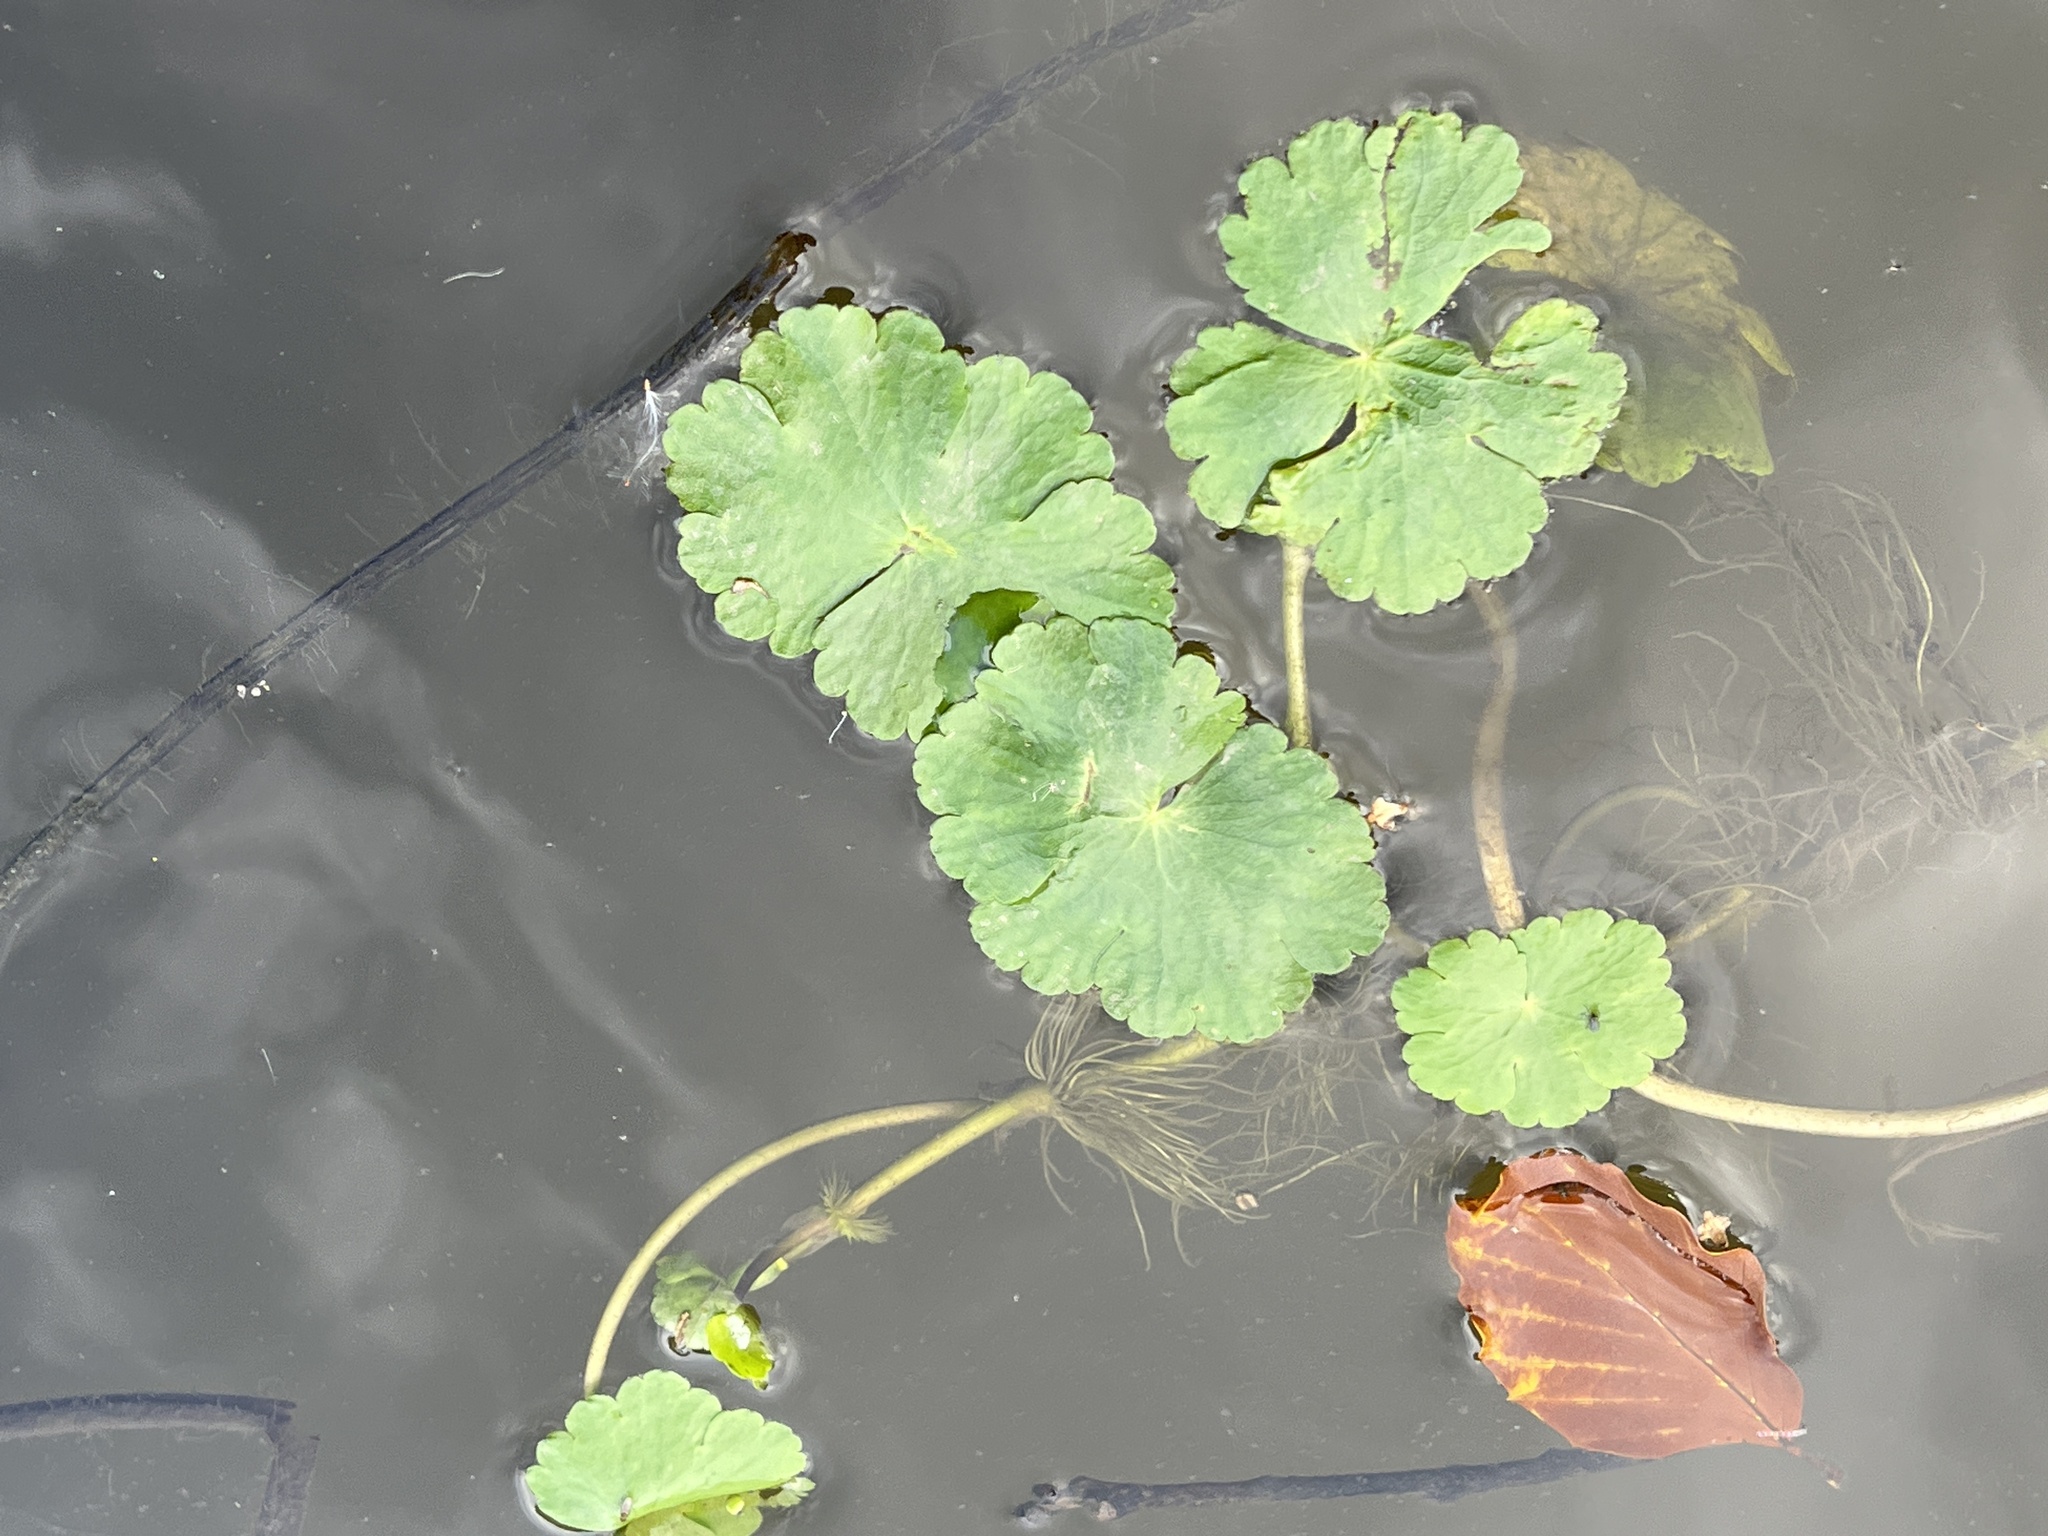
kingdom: Plantae
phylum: Tracheophyta
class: Magnoliopsida
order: Apiales
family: Araliaceae
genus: Hydrocotyle
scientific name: Hydrocotyle ranunculoides
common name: Floating pennywort
